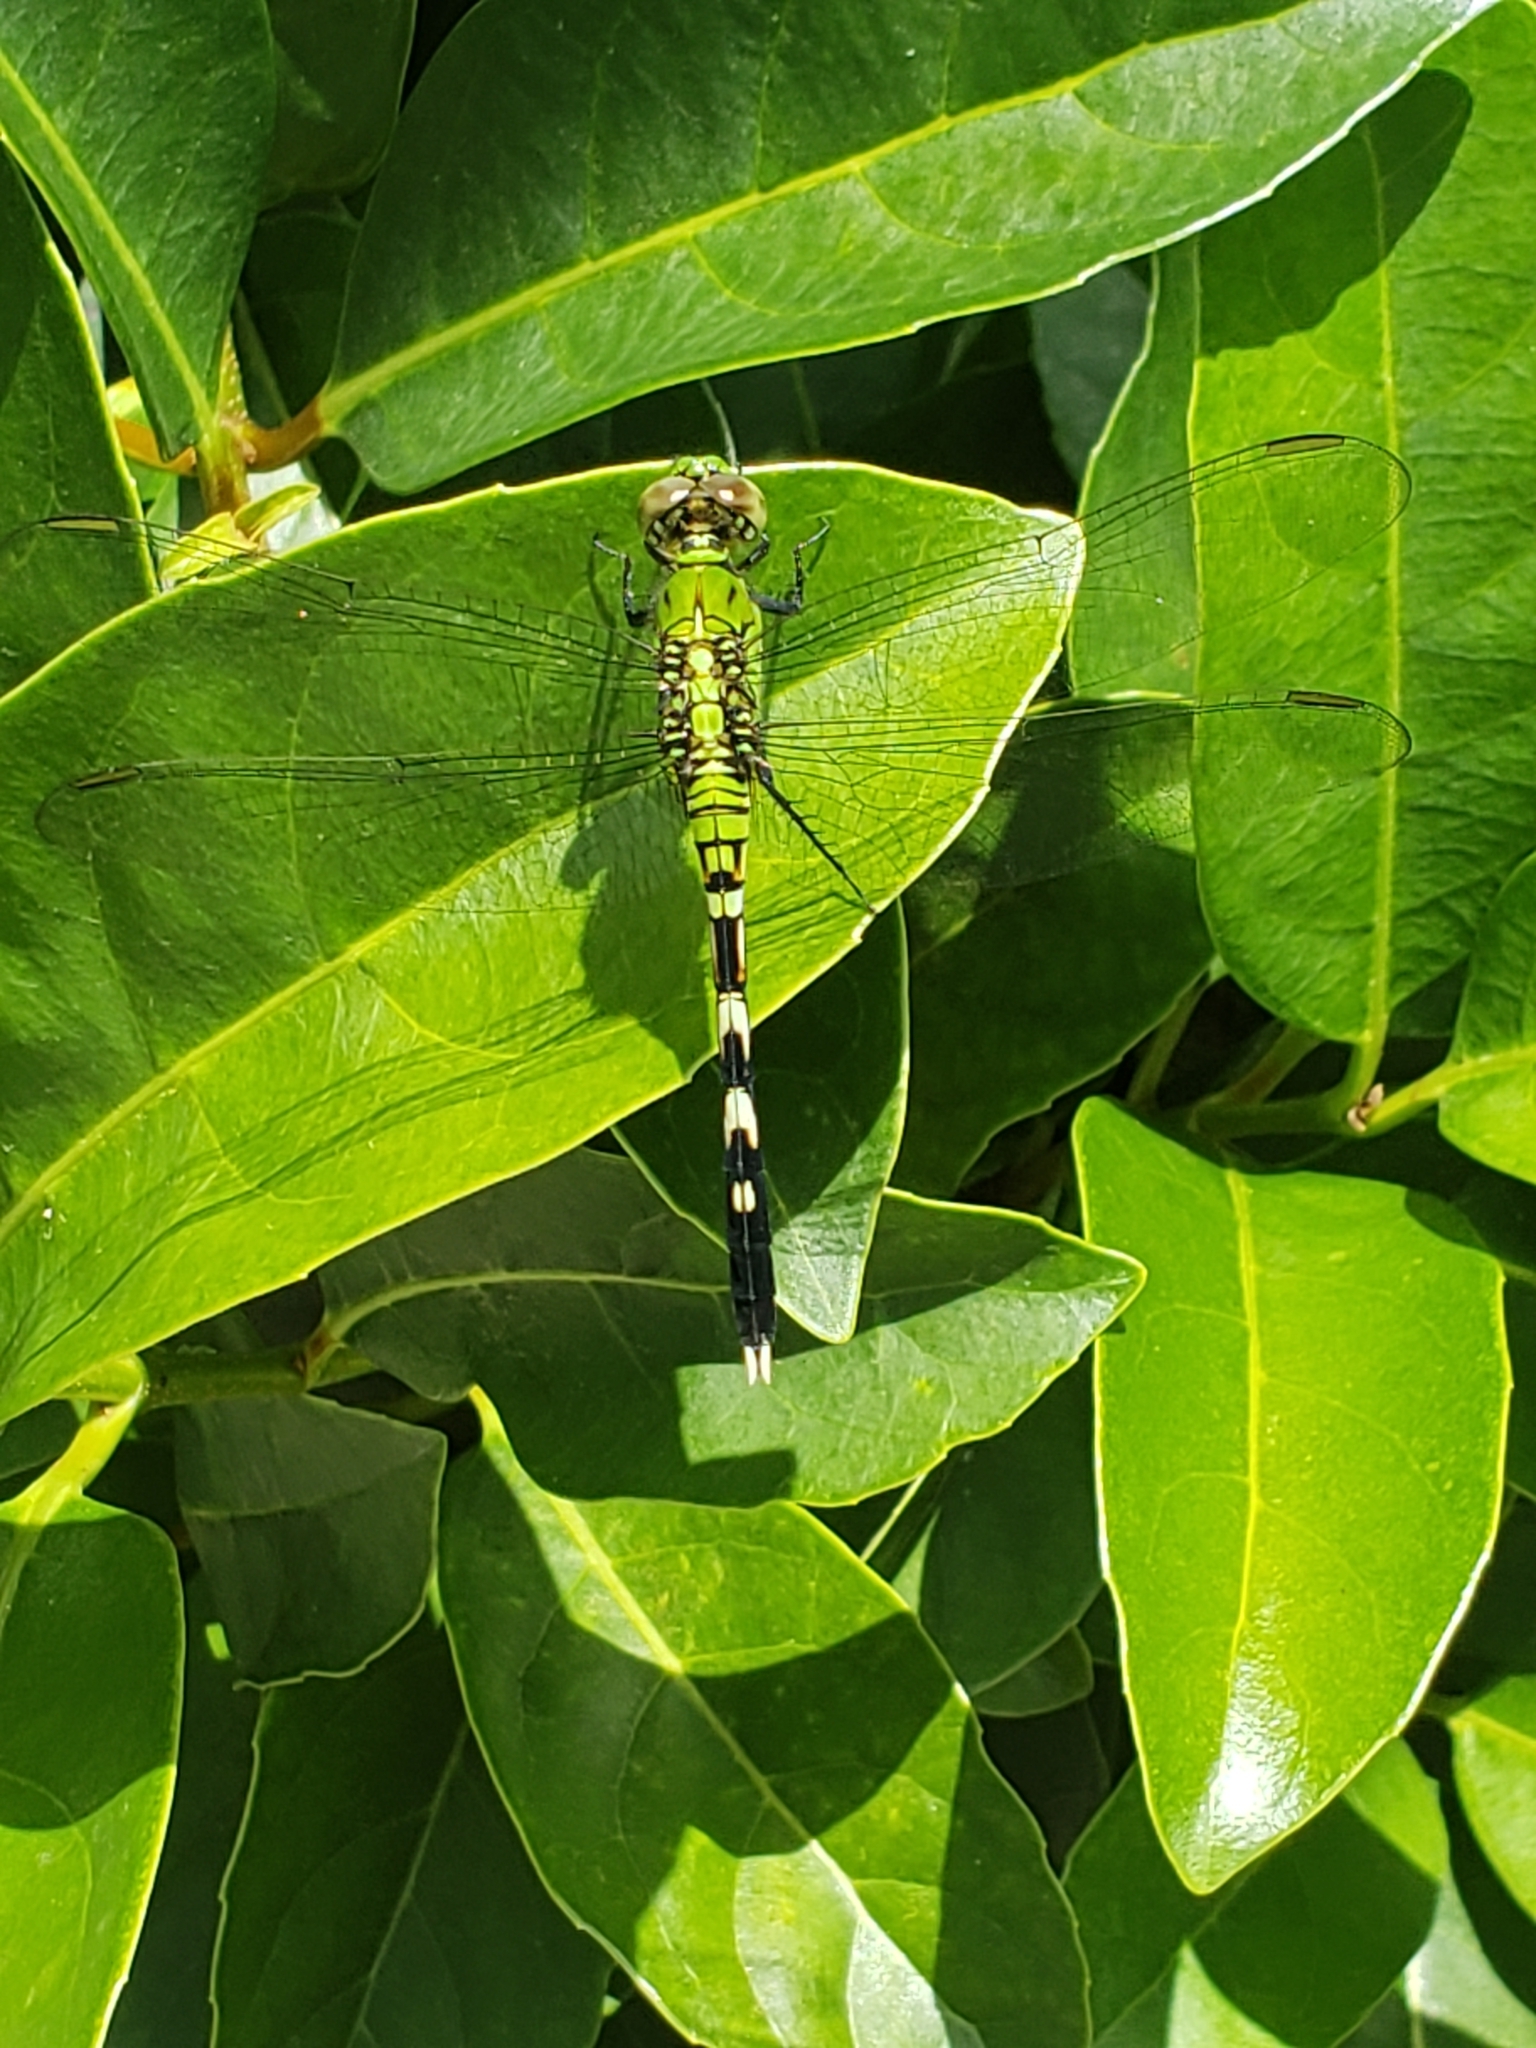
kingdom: Animalia
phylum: Arthropoda
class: Insecta
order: Odonata
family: Libellulidae
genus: Erythemis
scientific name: Erythemis simplicicollis
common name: Eastern pondhawk
